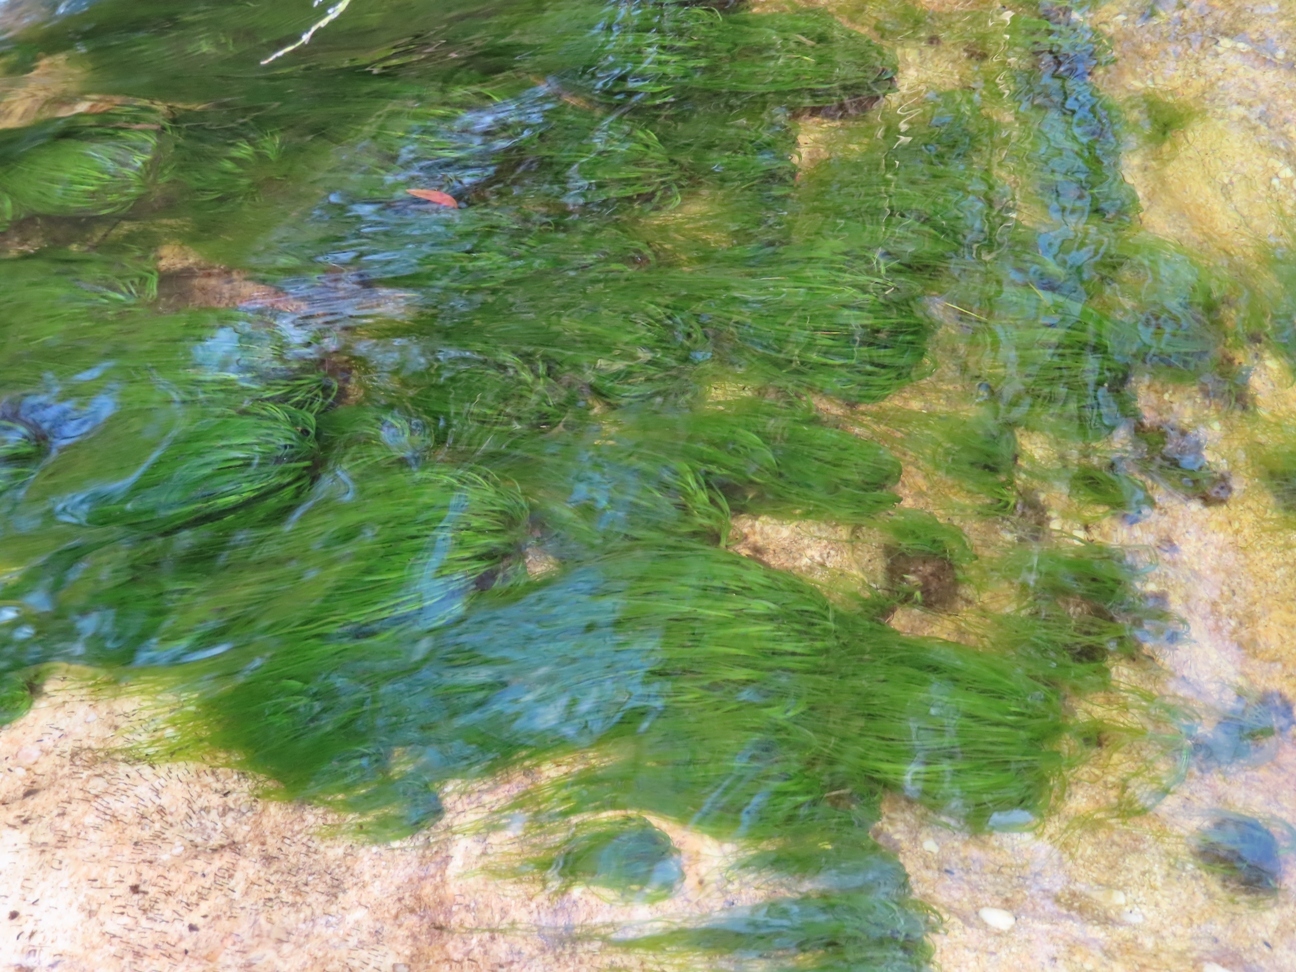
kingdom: Plantae
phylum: Tracheophyta
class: Liliopsida
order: Poales
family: Cyperaceae
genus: Isolepis
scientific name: Isolepis digitata
